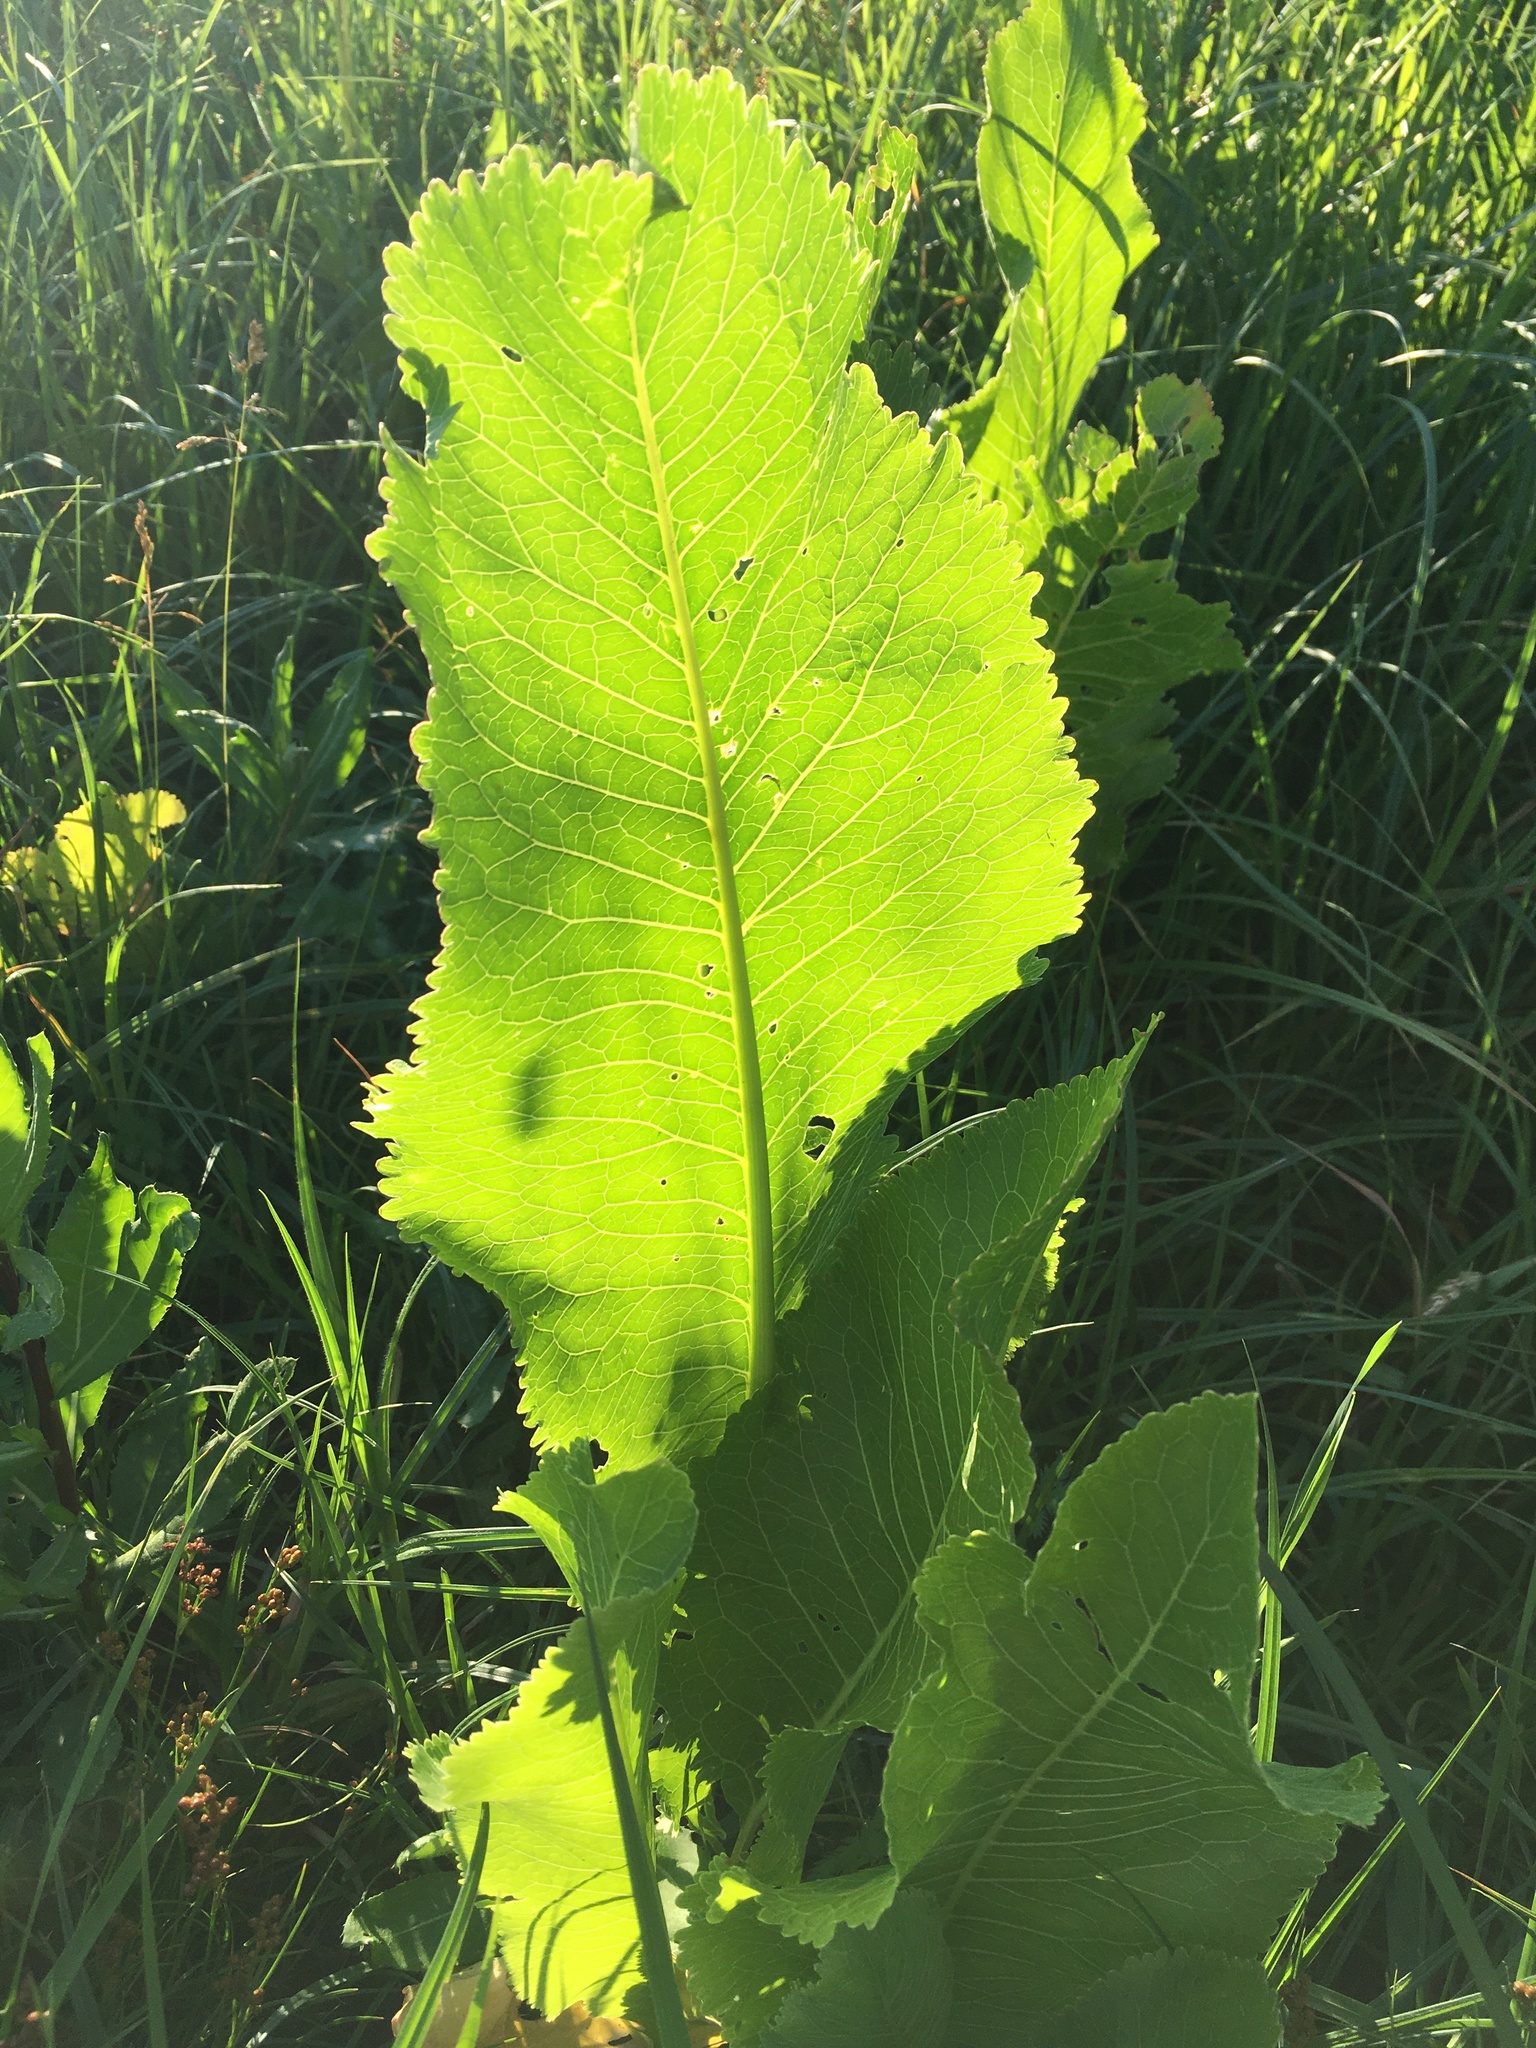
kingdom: Plantae
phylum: Tracheophyta
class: Magnoliopsida
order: Brassicales
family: Brassicaceae
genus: Armoracia
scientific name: Armoracia rusticana
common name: Horseradish
